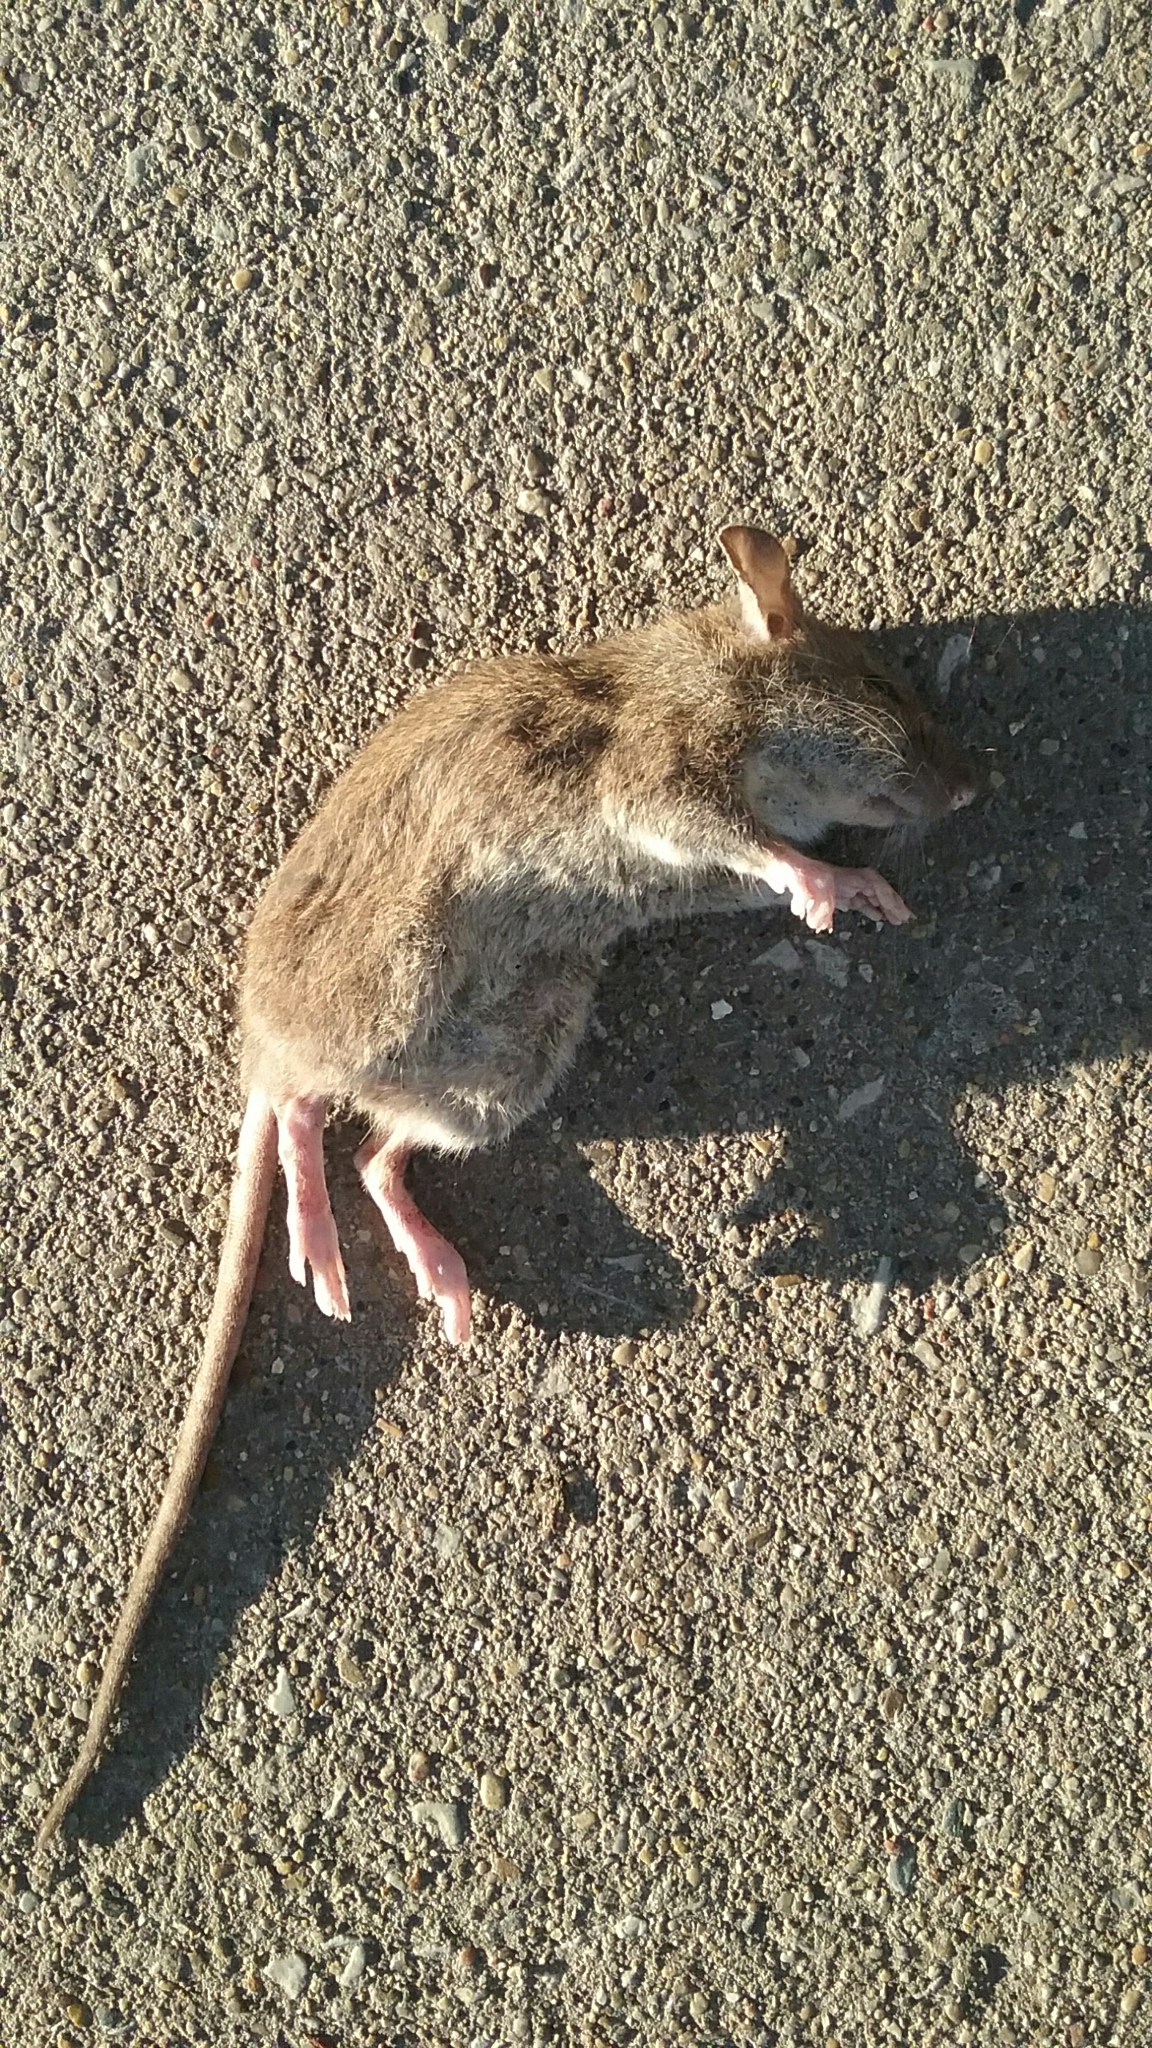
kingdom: Animalia
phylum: Chordata
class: Mammalia
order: Rodentia
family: Muridae
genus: Rattus
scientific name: Rattus norvegicus
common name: Brown rat
